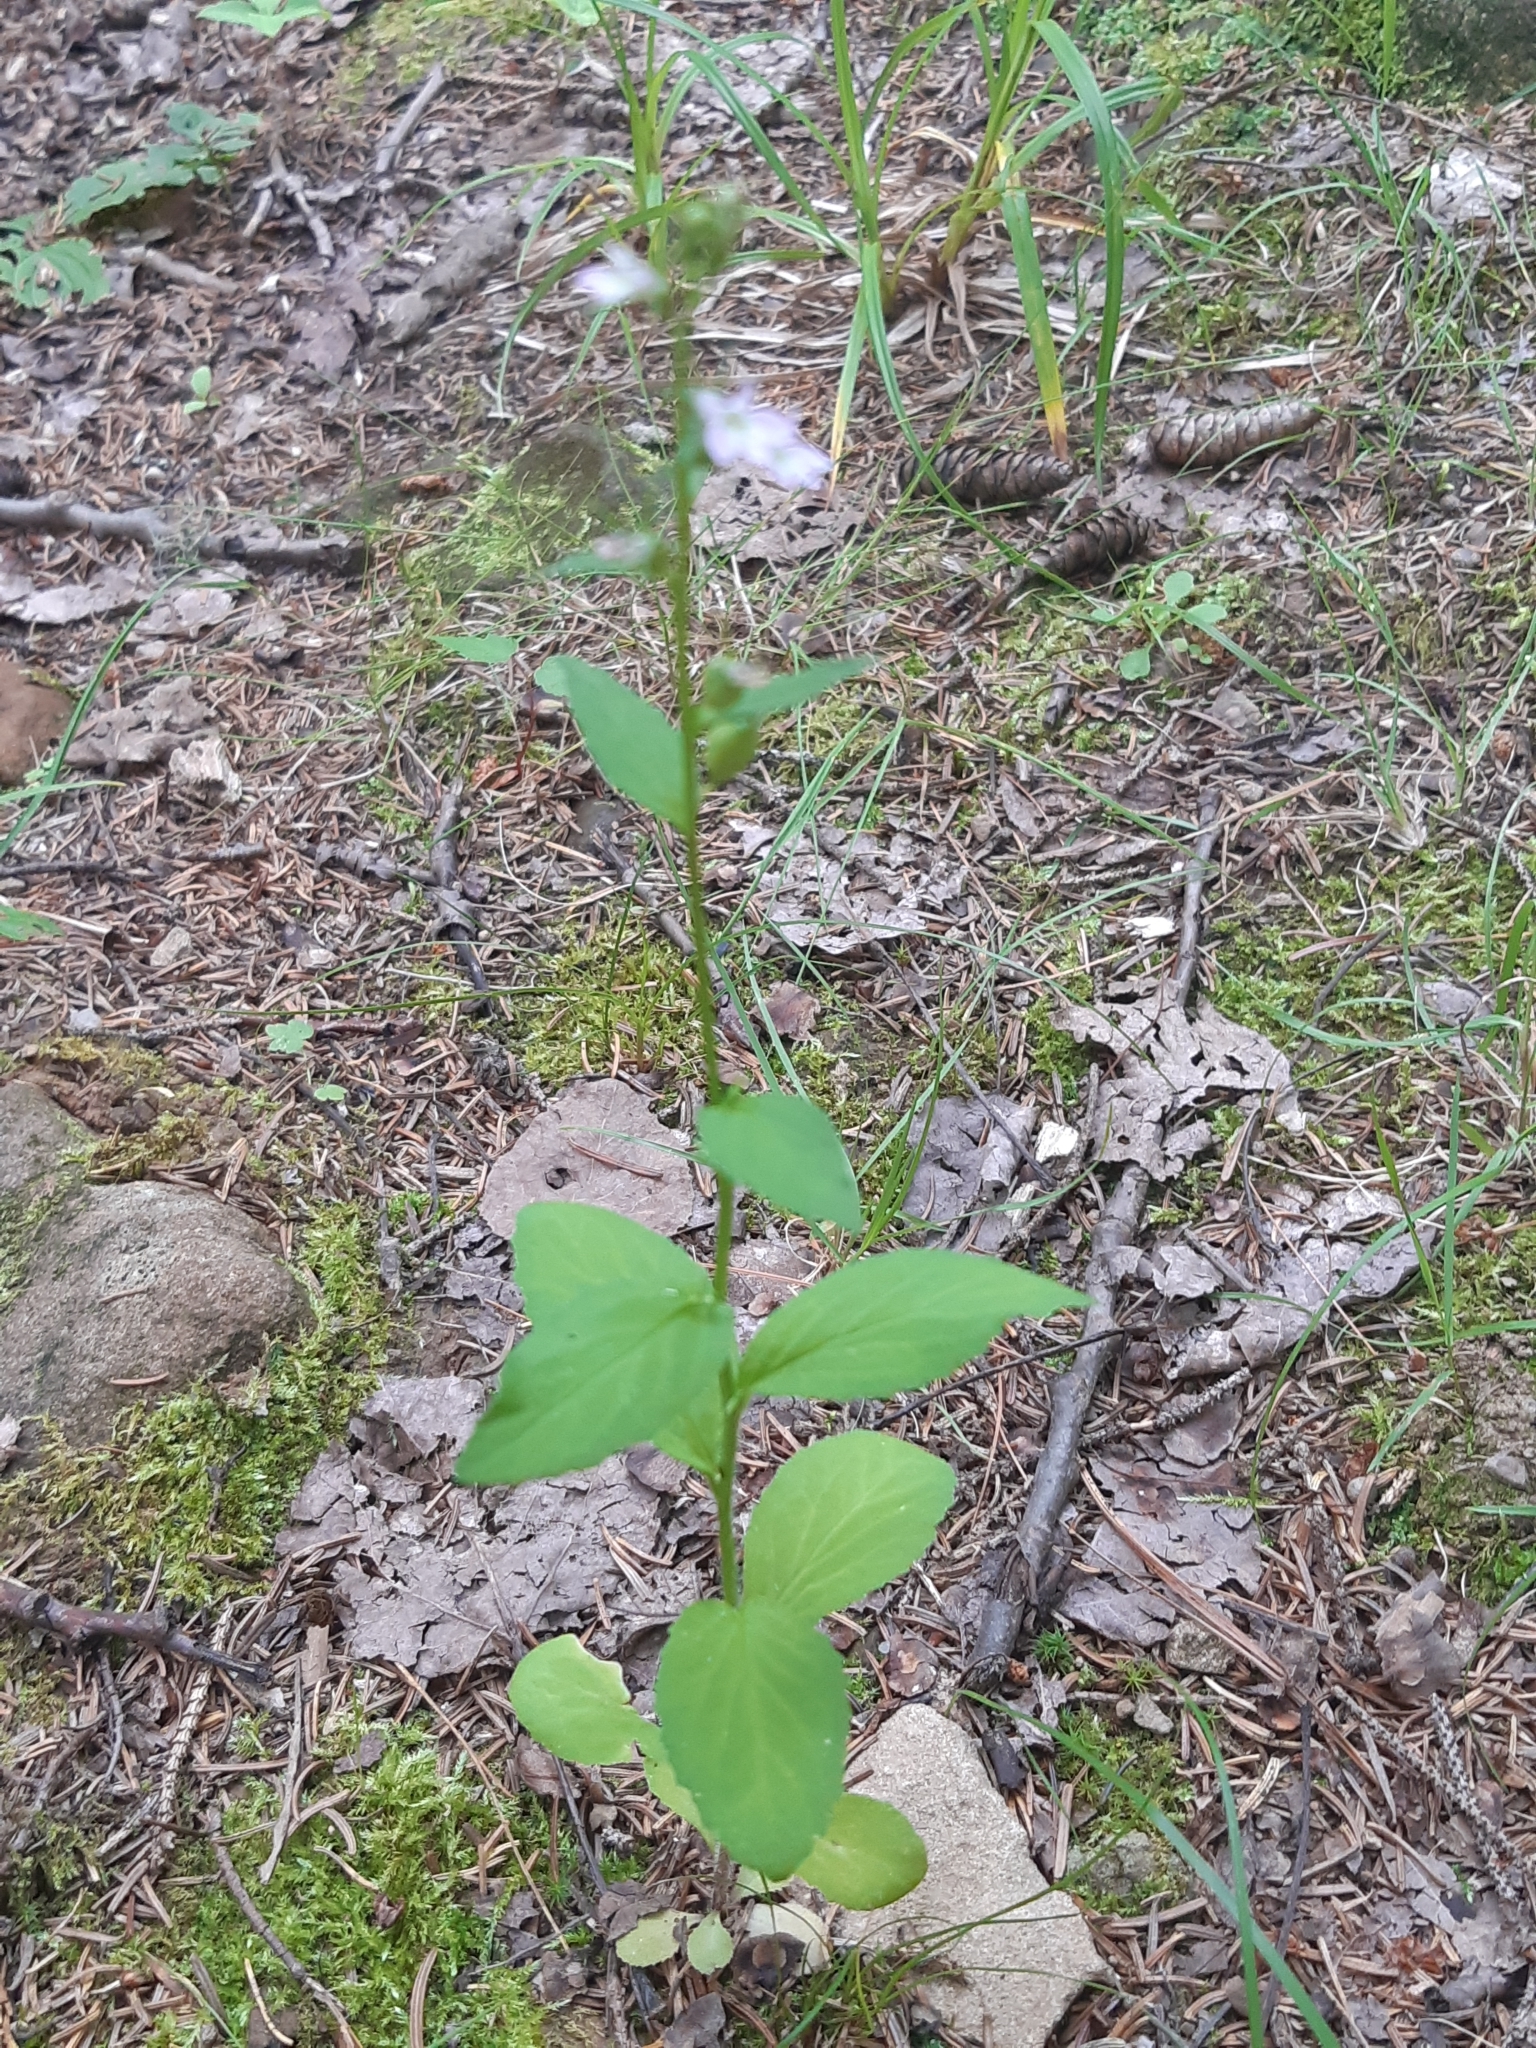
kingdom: Plantae
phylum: Tracheophyta
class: Magnoliopsida
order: Asterales
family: Campanulaceae
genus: Lobelia
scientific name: Lobelia inflata
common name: Indian tobacco
